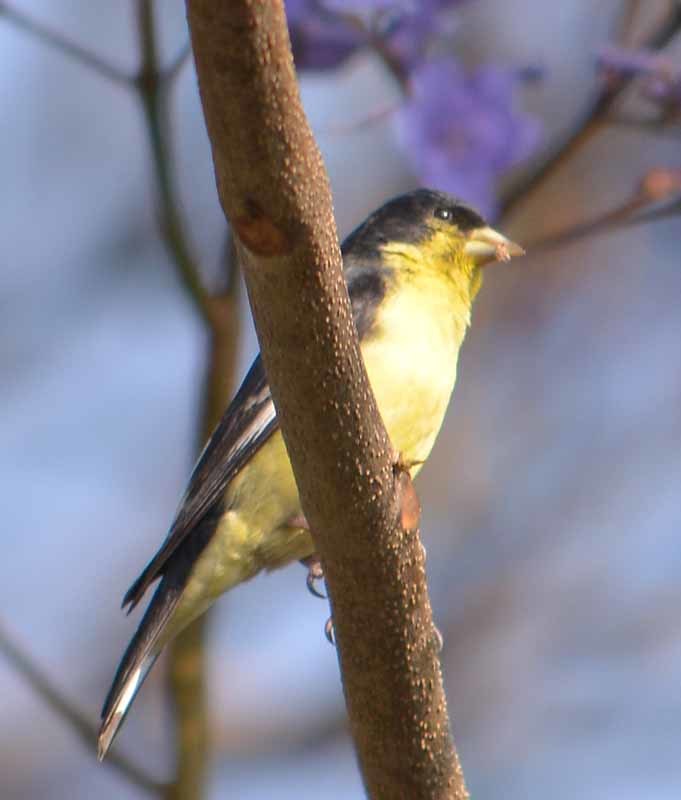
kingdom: Animalia
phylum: Chordata
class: Aves
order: Passeriformes
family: Fringillidae
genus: Spinus
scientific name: Spinus psaltria
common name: Lesser goldfinch
